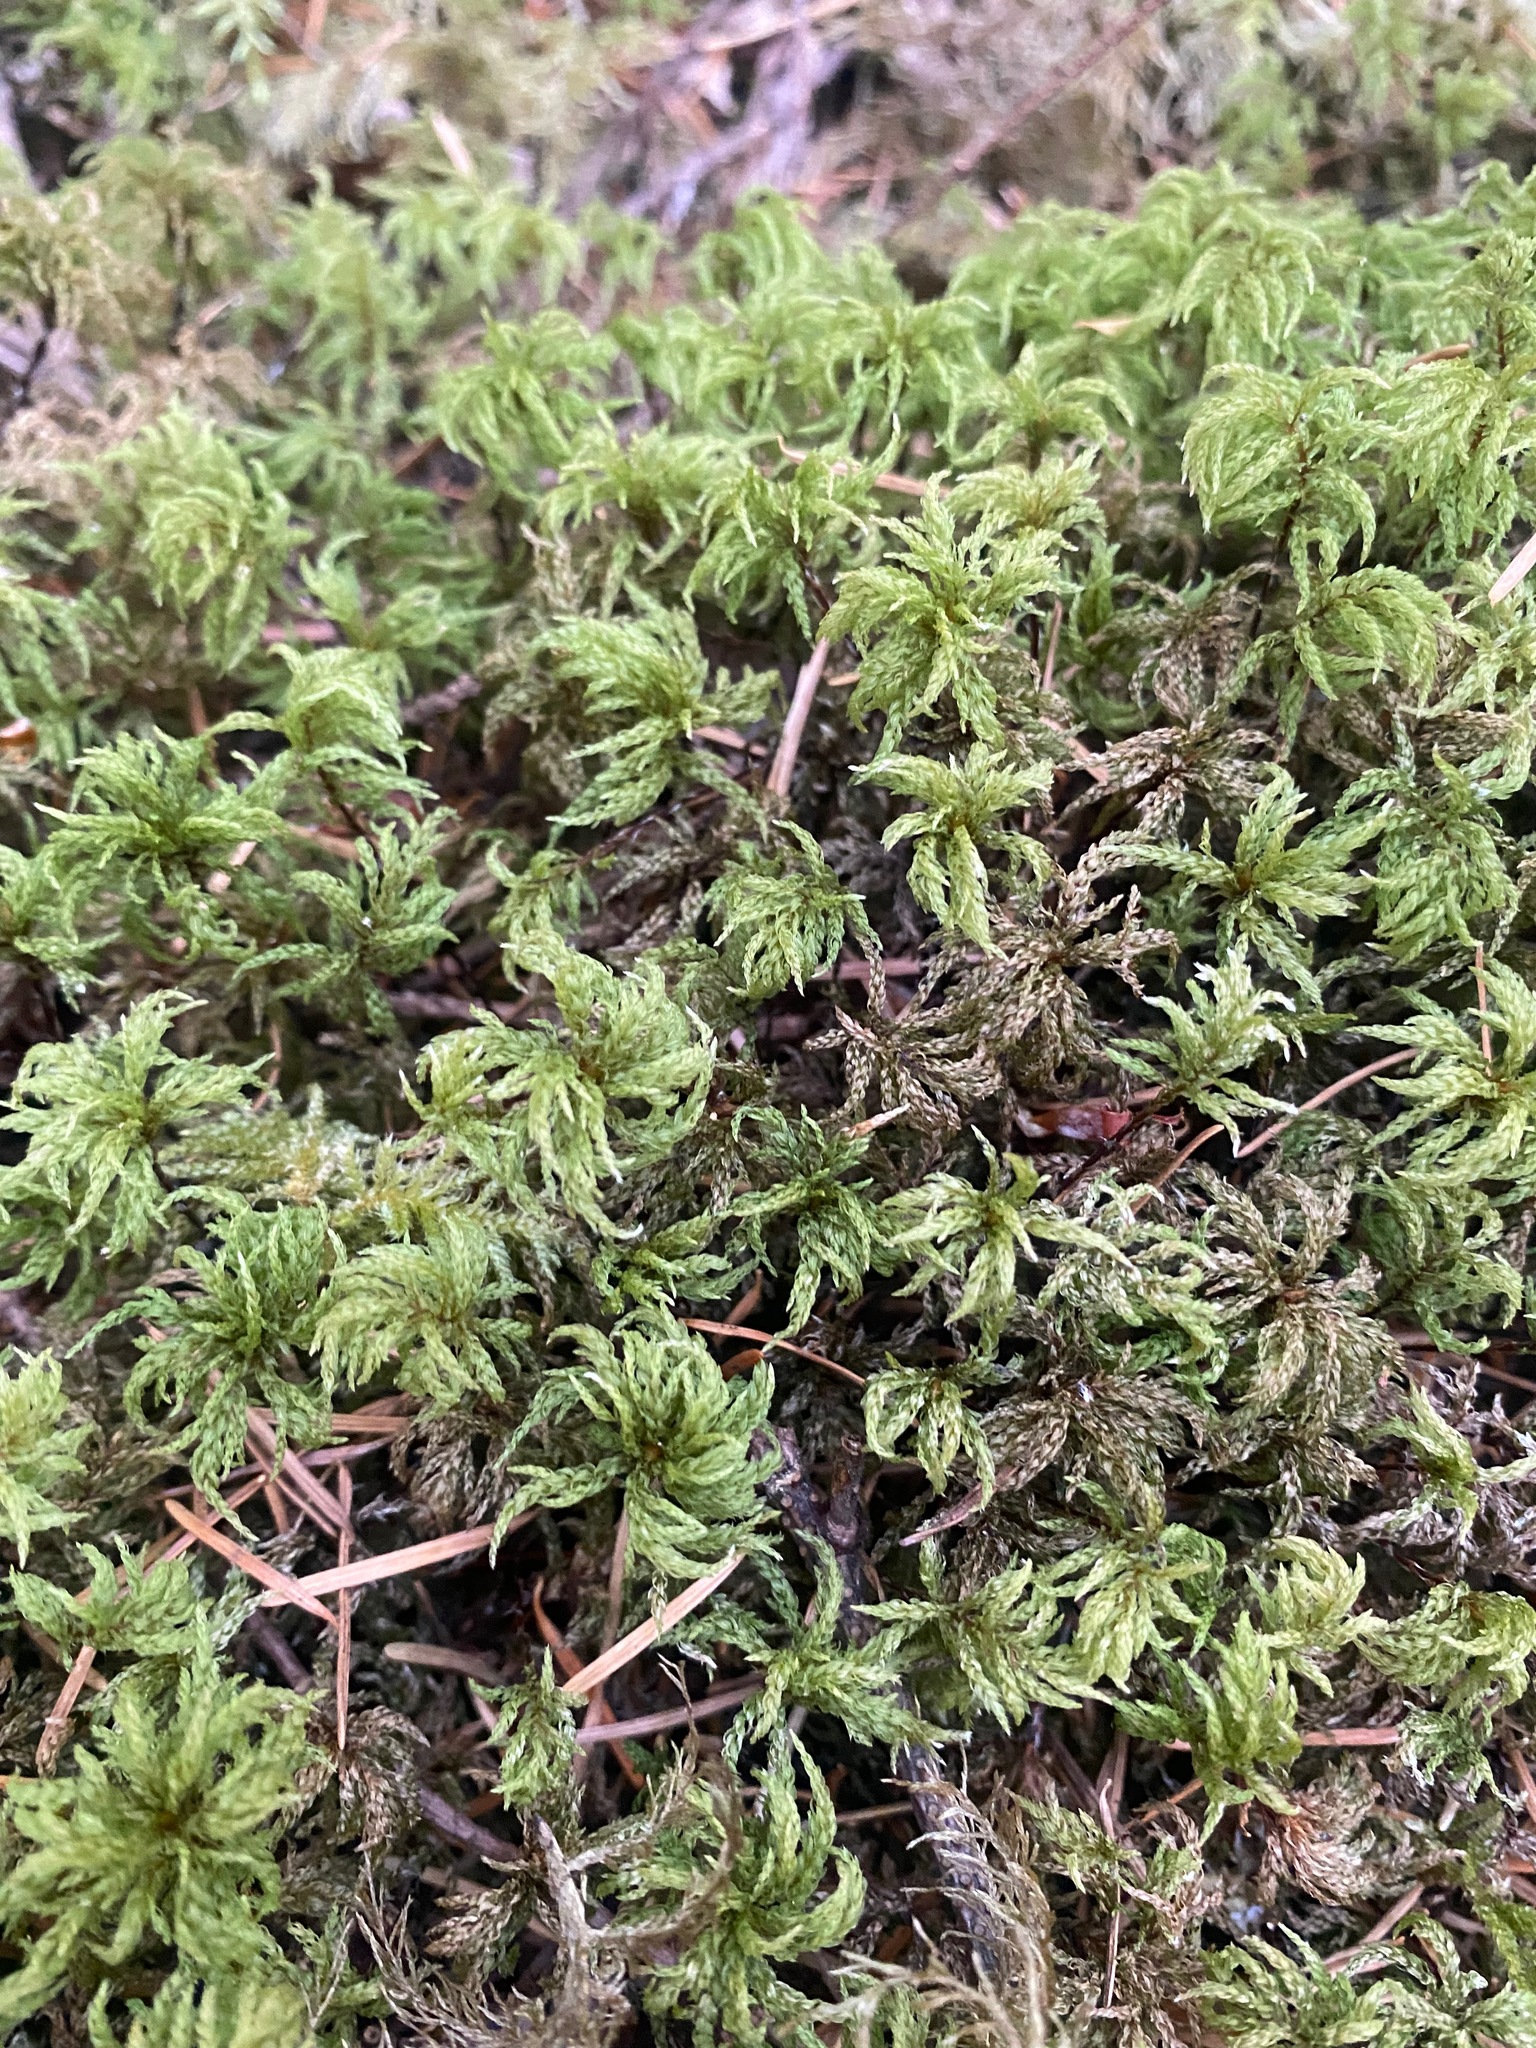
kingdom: Plantae
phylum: Bryophyta
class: Bryopsida
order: Bryales
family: Mniaceae
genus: Leucolepis
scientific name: Leucolepis acanthoneura
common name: Leucolepis umbrella moss
